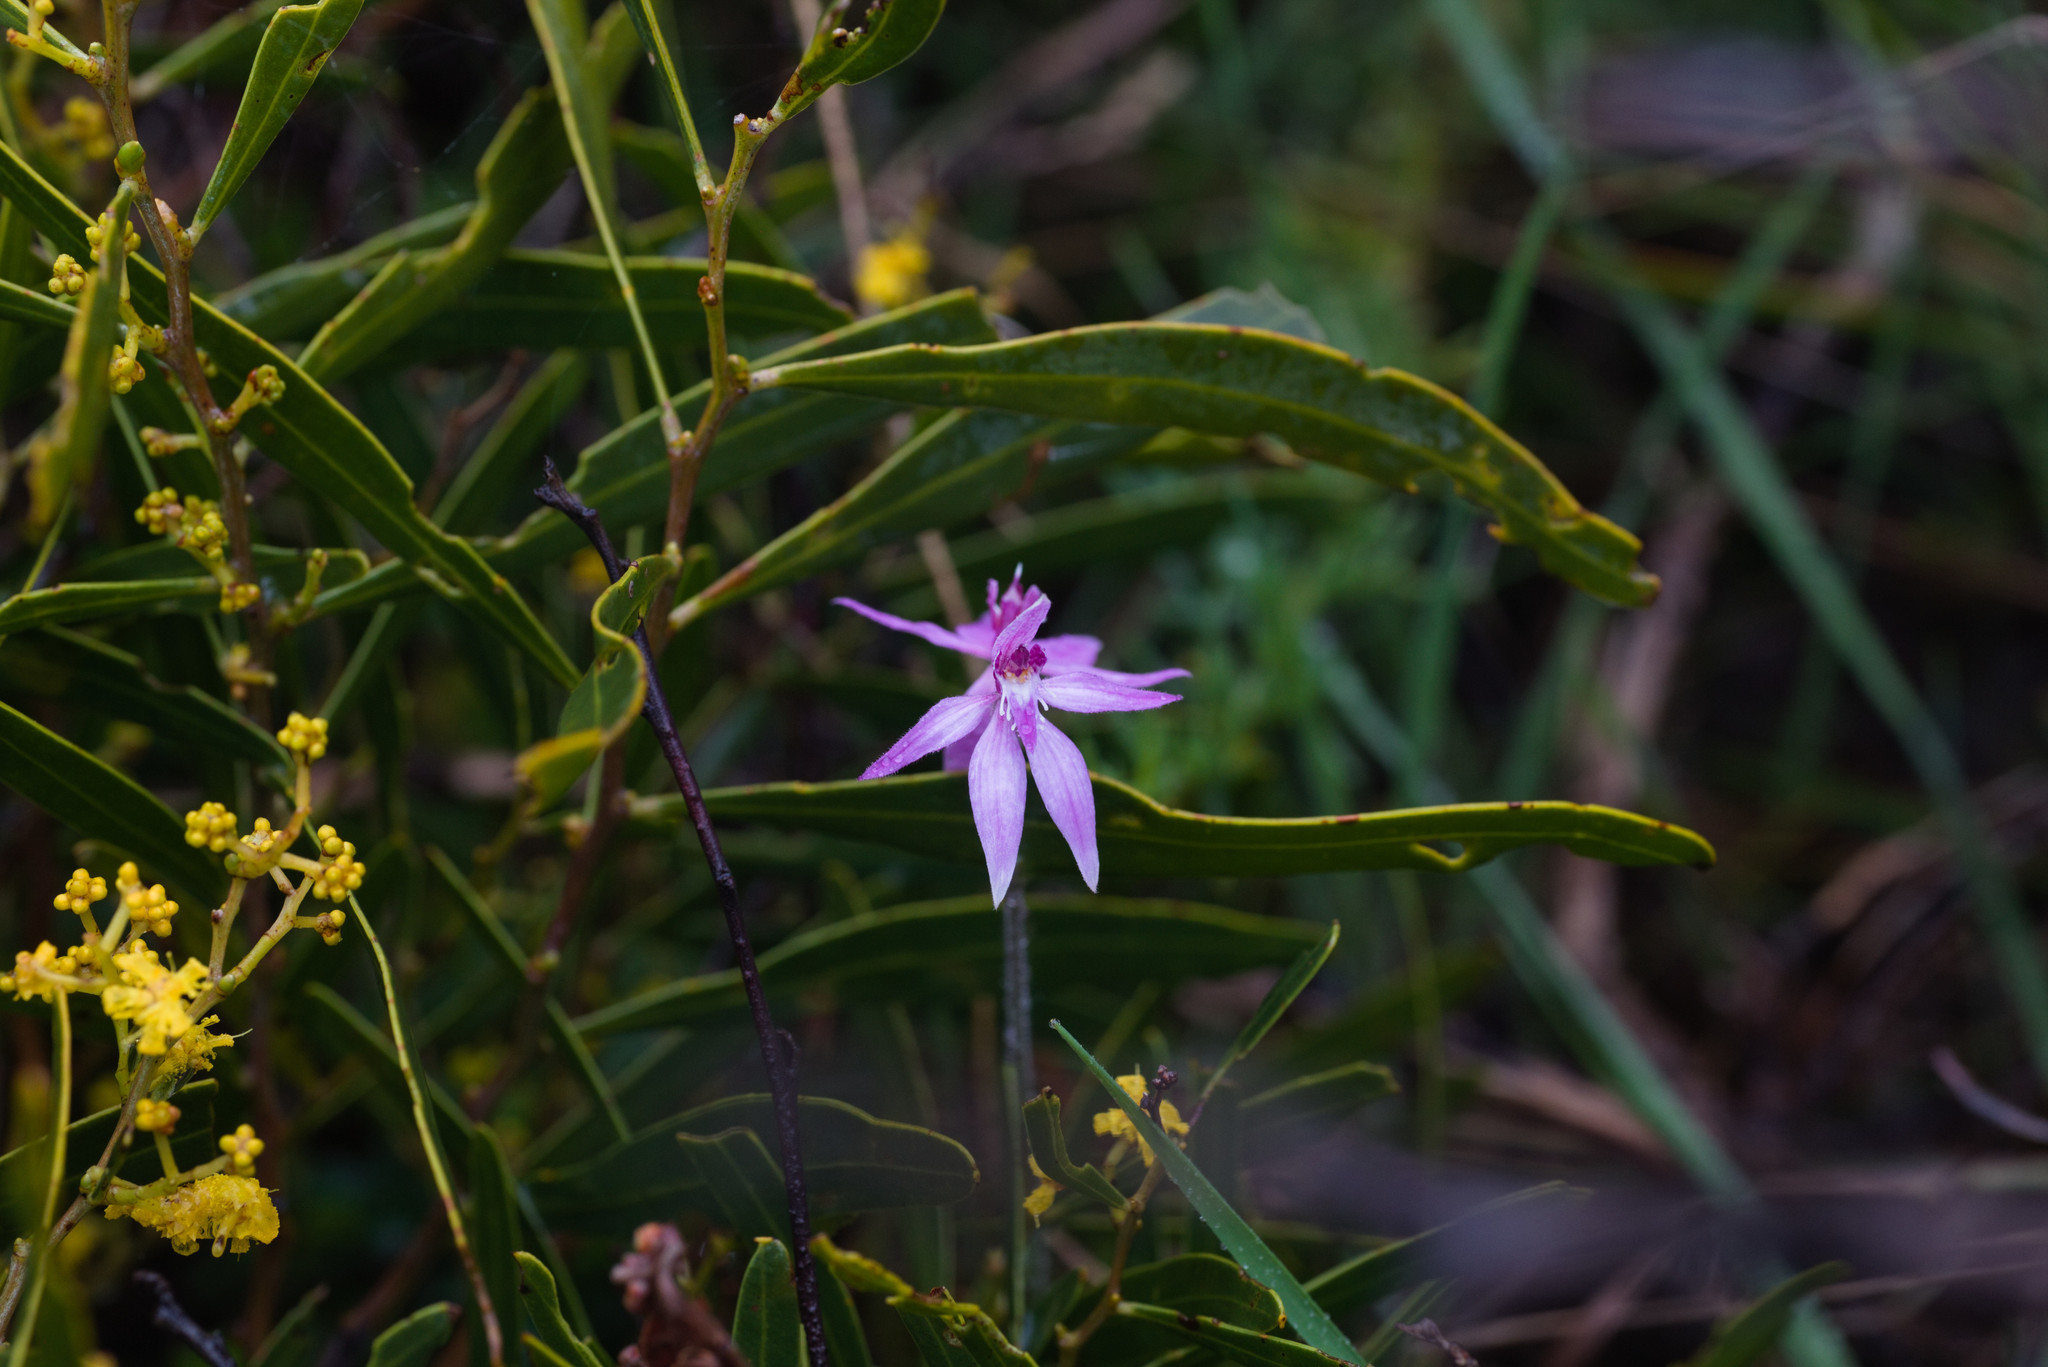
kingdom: Plantae
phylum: Tracheophyta
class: Liliopsida
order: Asparagales
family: Orchidaceae
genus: Caladenia
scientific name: Caladenia latifolia
